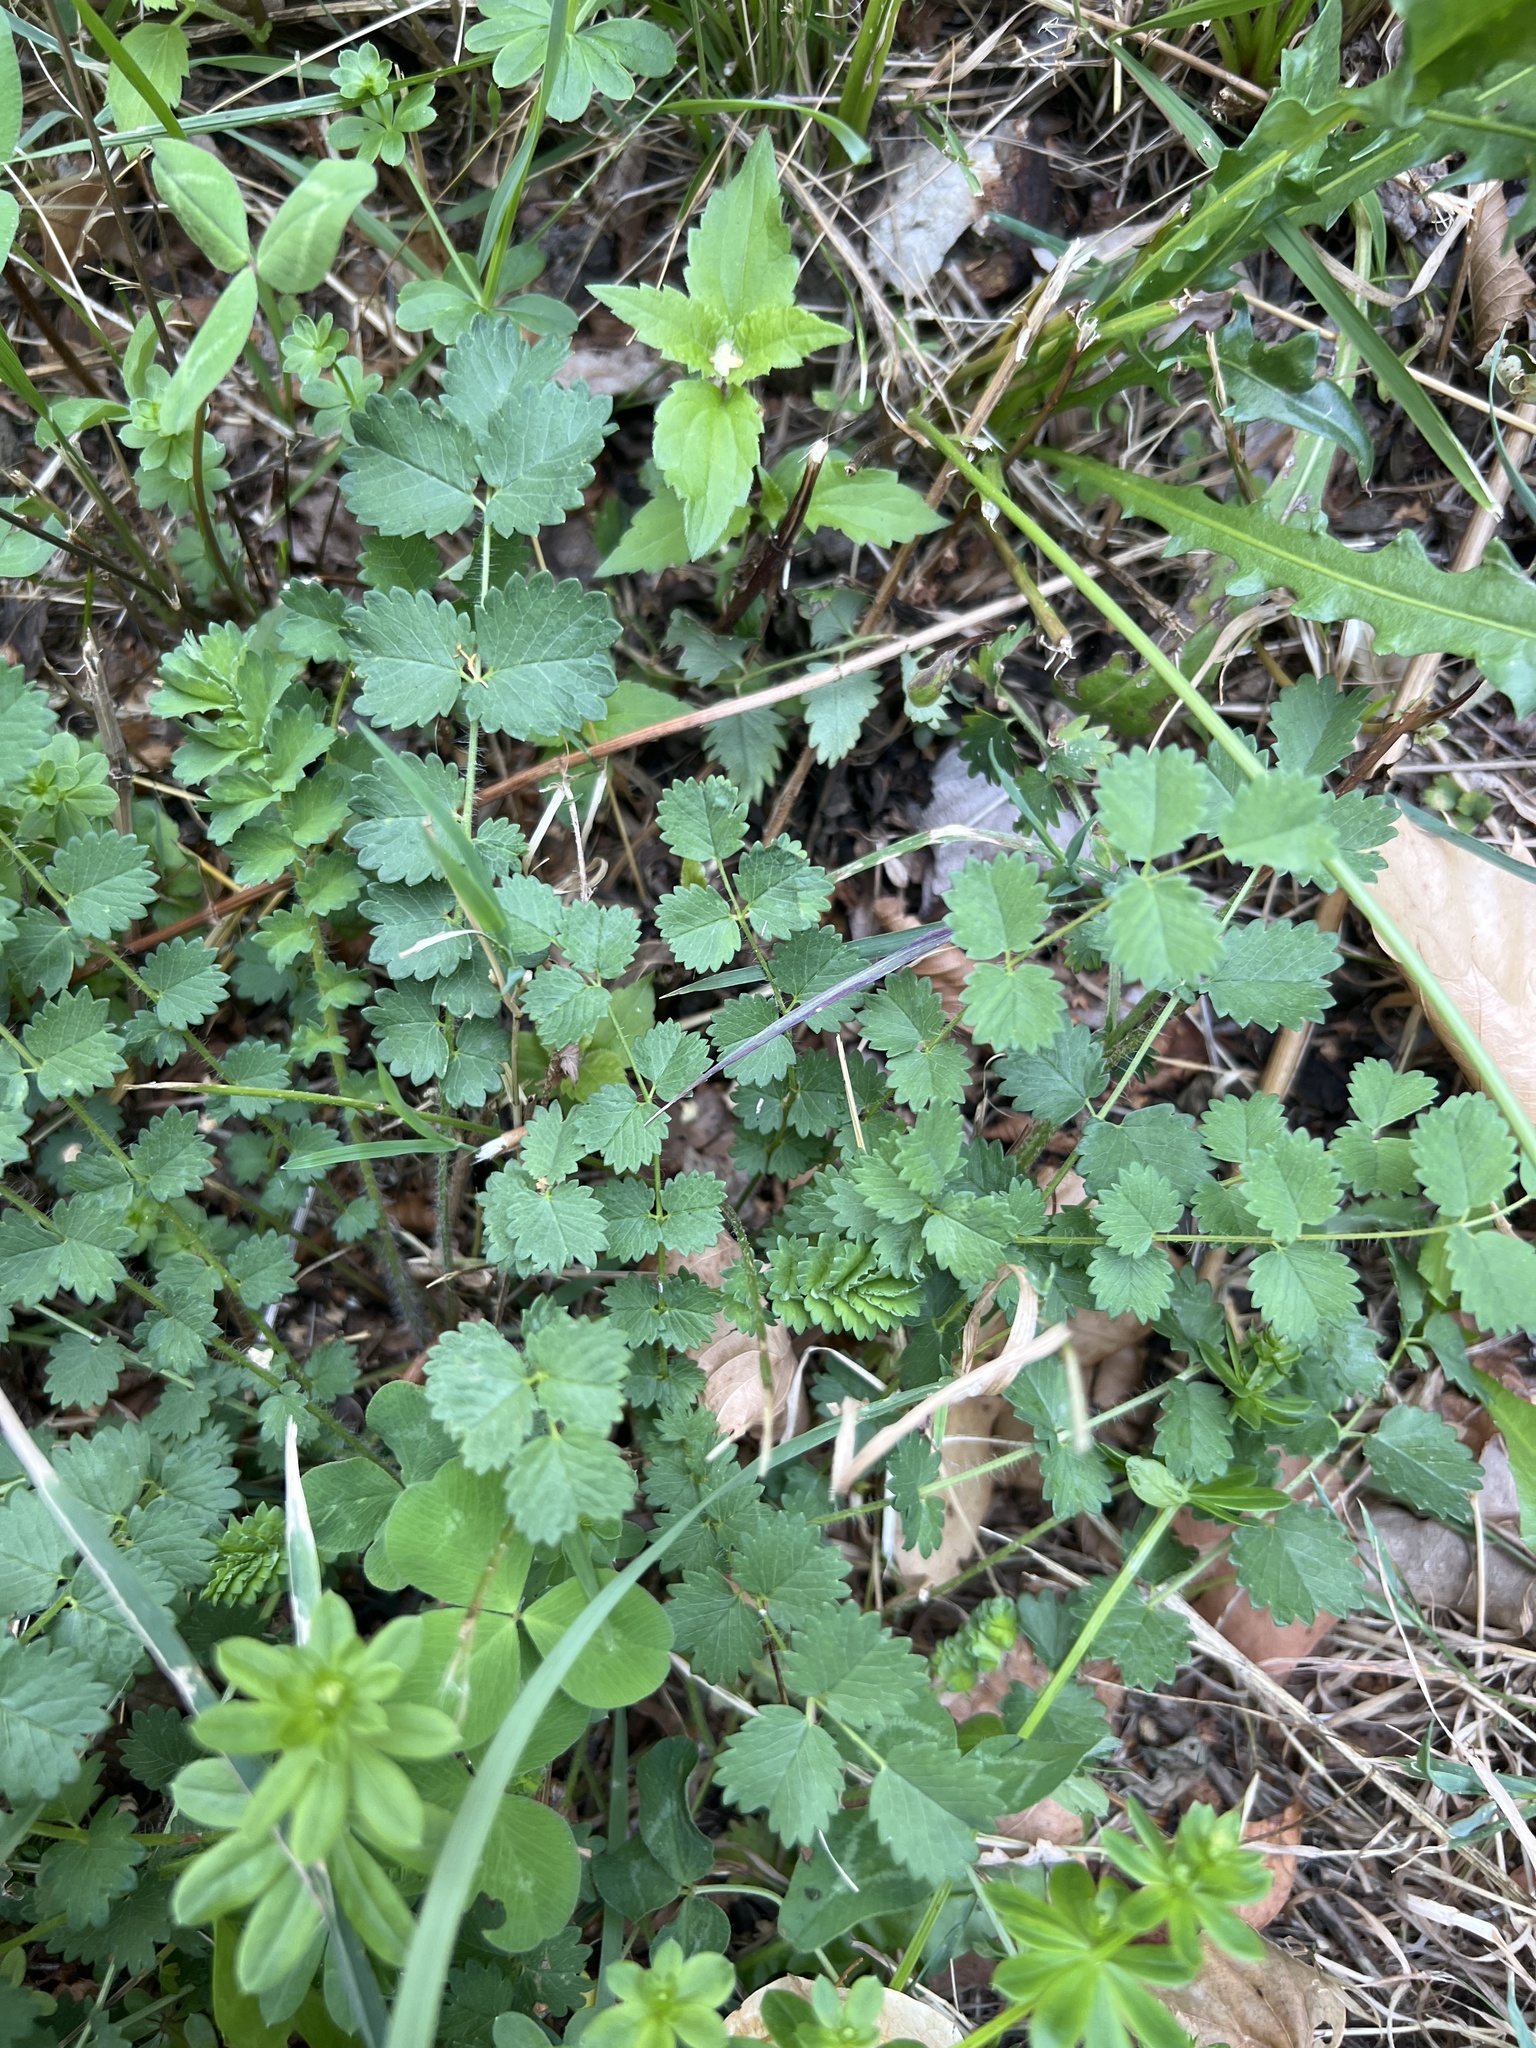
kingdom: Plantae
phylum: Tracheophyta
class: Magnoliopsida
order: Rosales
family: Rosaceae
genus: Poterium
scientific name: Poterium sanguisorba
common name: Salad burnet
